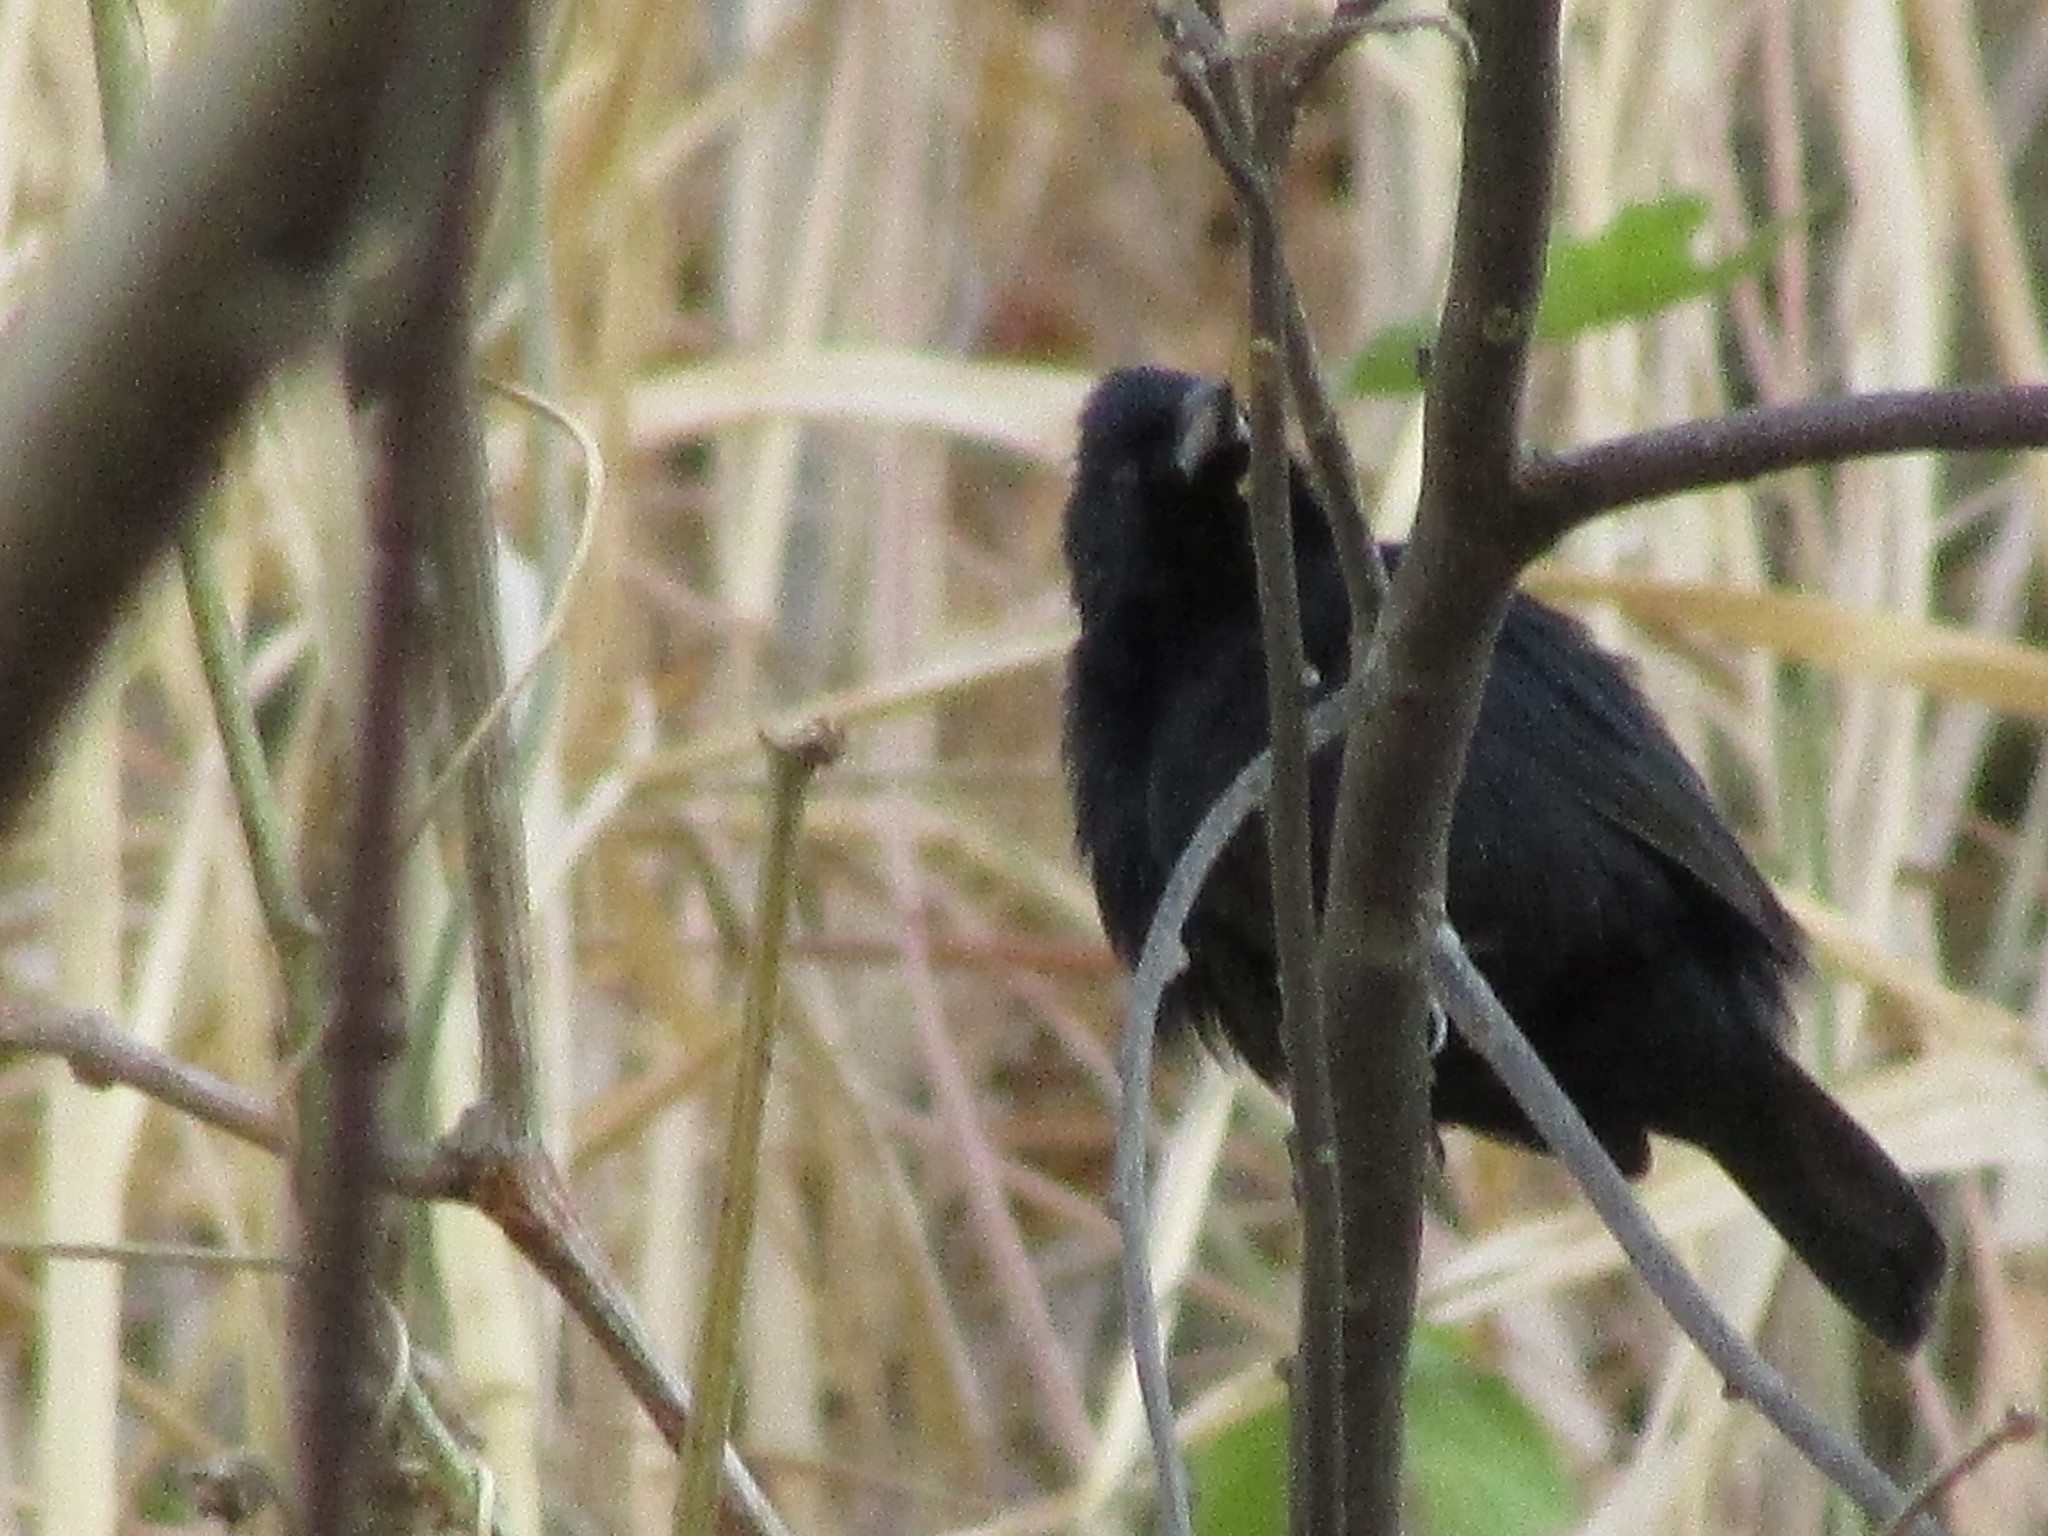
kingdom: Animalia
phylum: Chordata
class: Aves
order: Passeriformes
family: Thraupidae
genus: Volatinia
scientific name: Volatinia jacarina
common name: Blue-black grassquit
